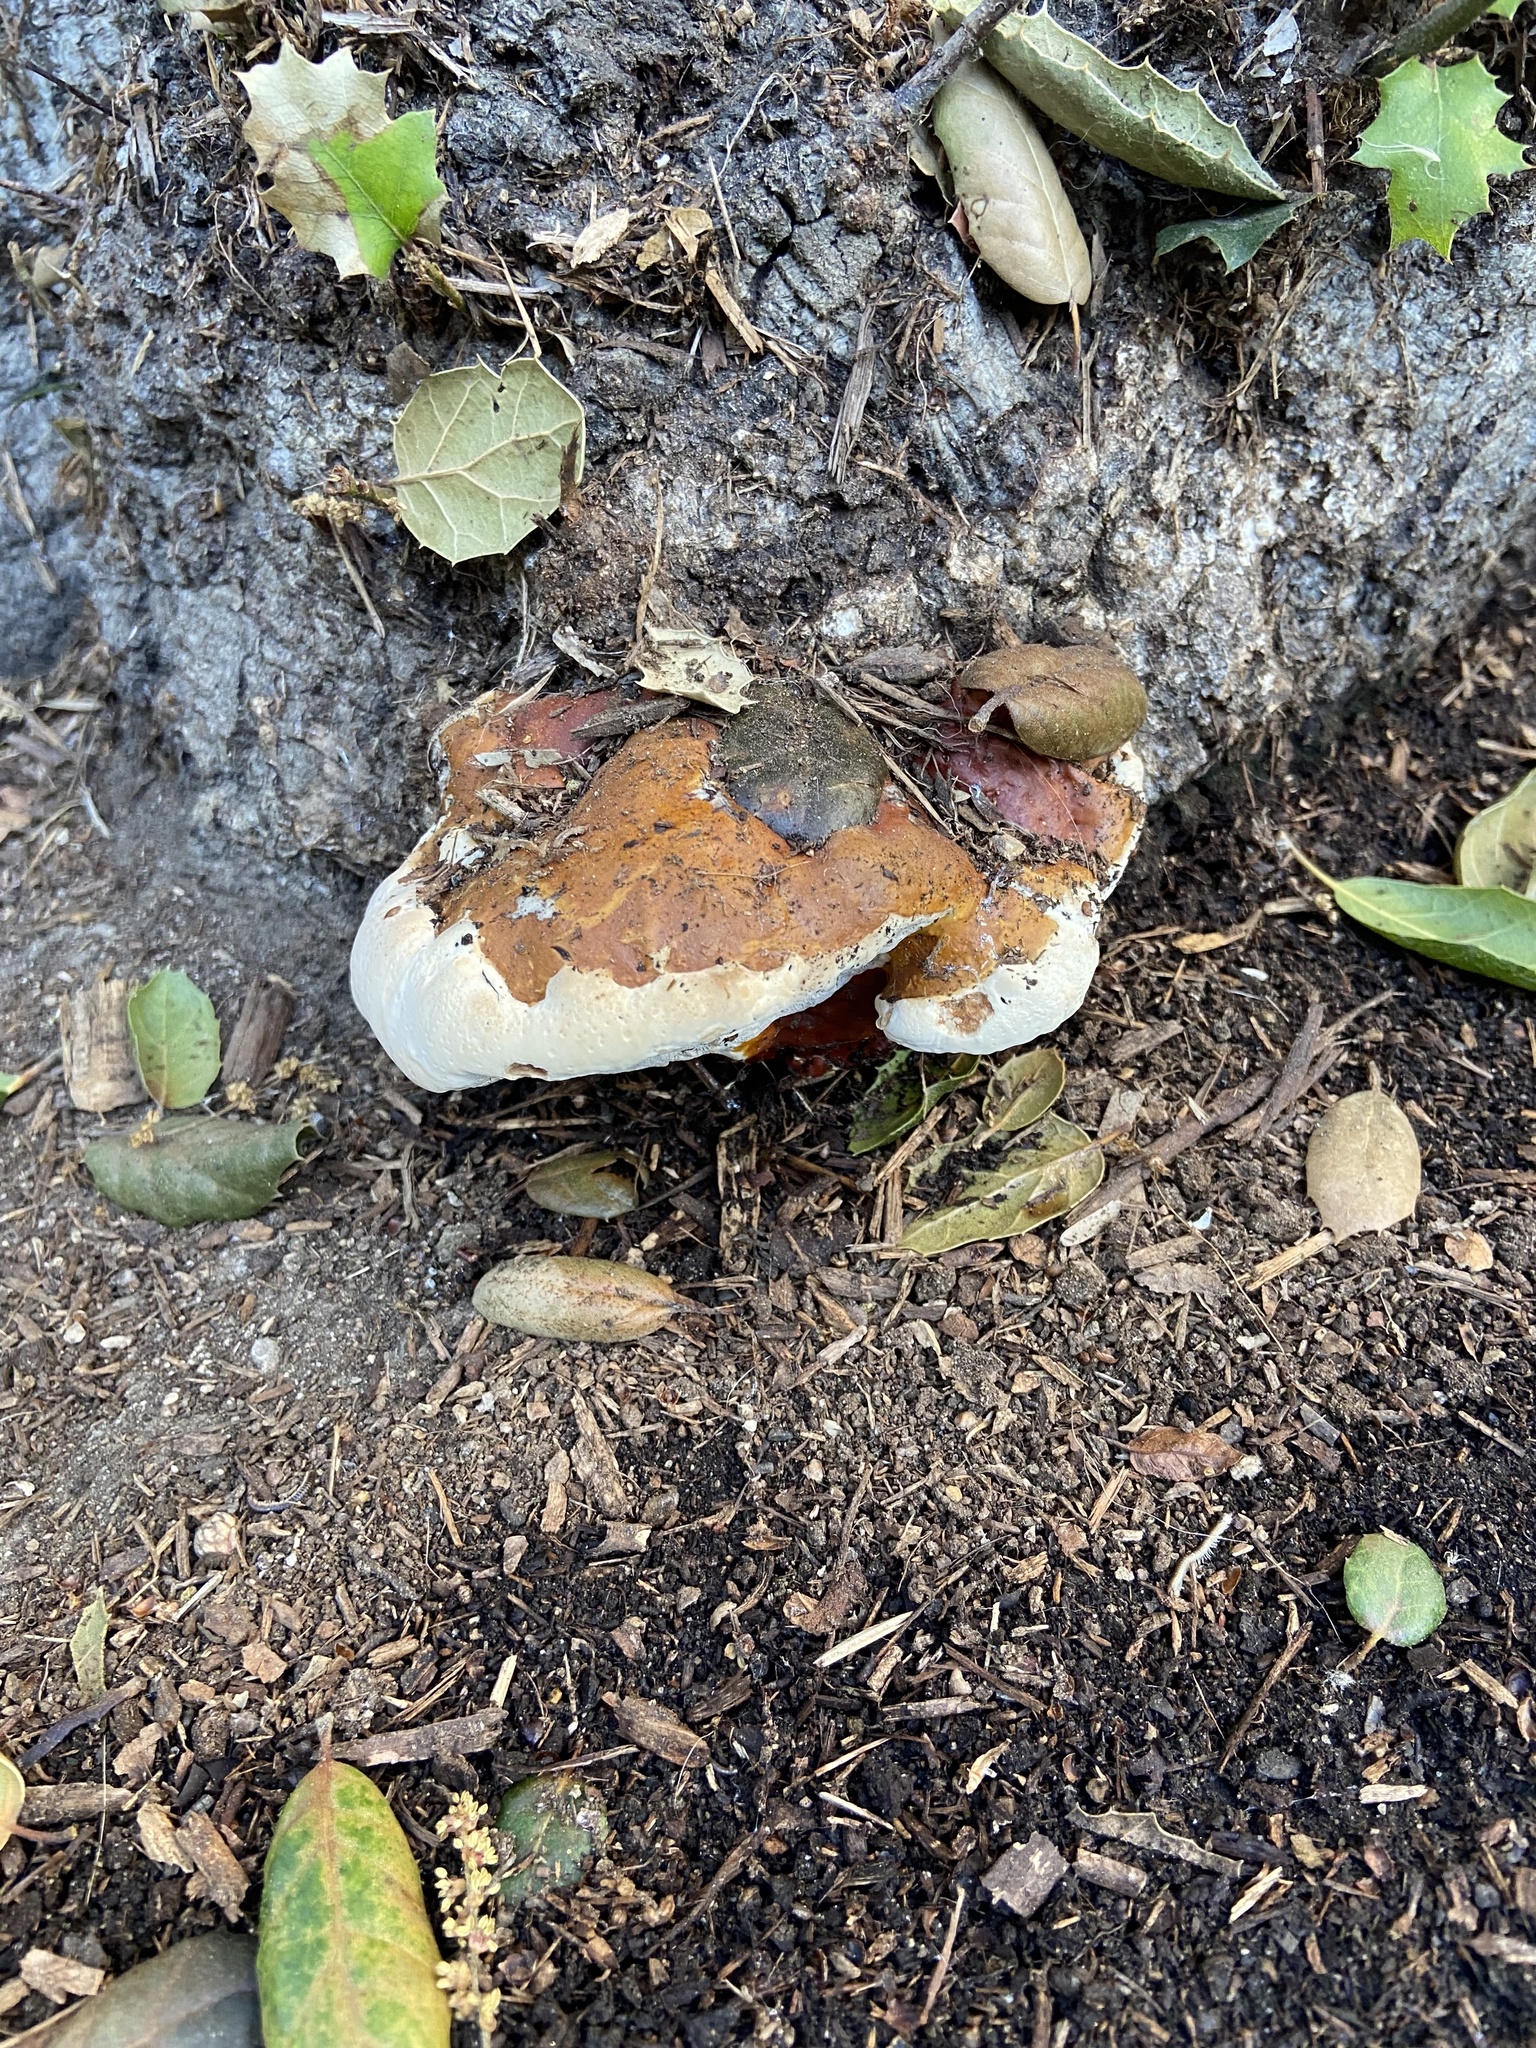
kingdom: Fungi
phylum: Basidiomycota
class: Agaricomycetes
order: Polyporales
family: Polyporaceae
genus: Ganoderma
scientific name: Ganoderma polychromum
